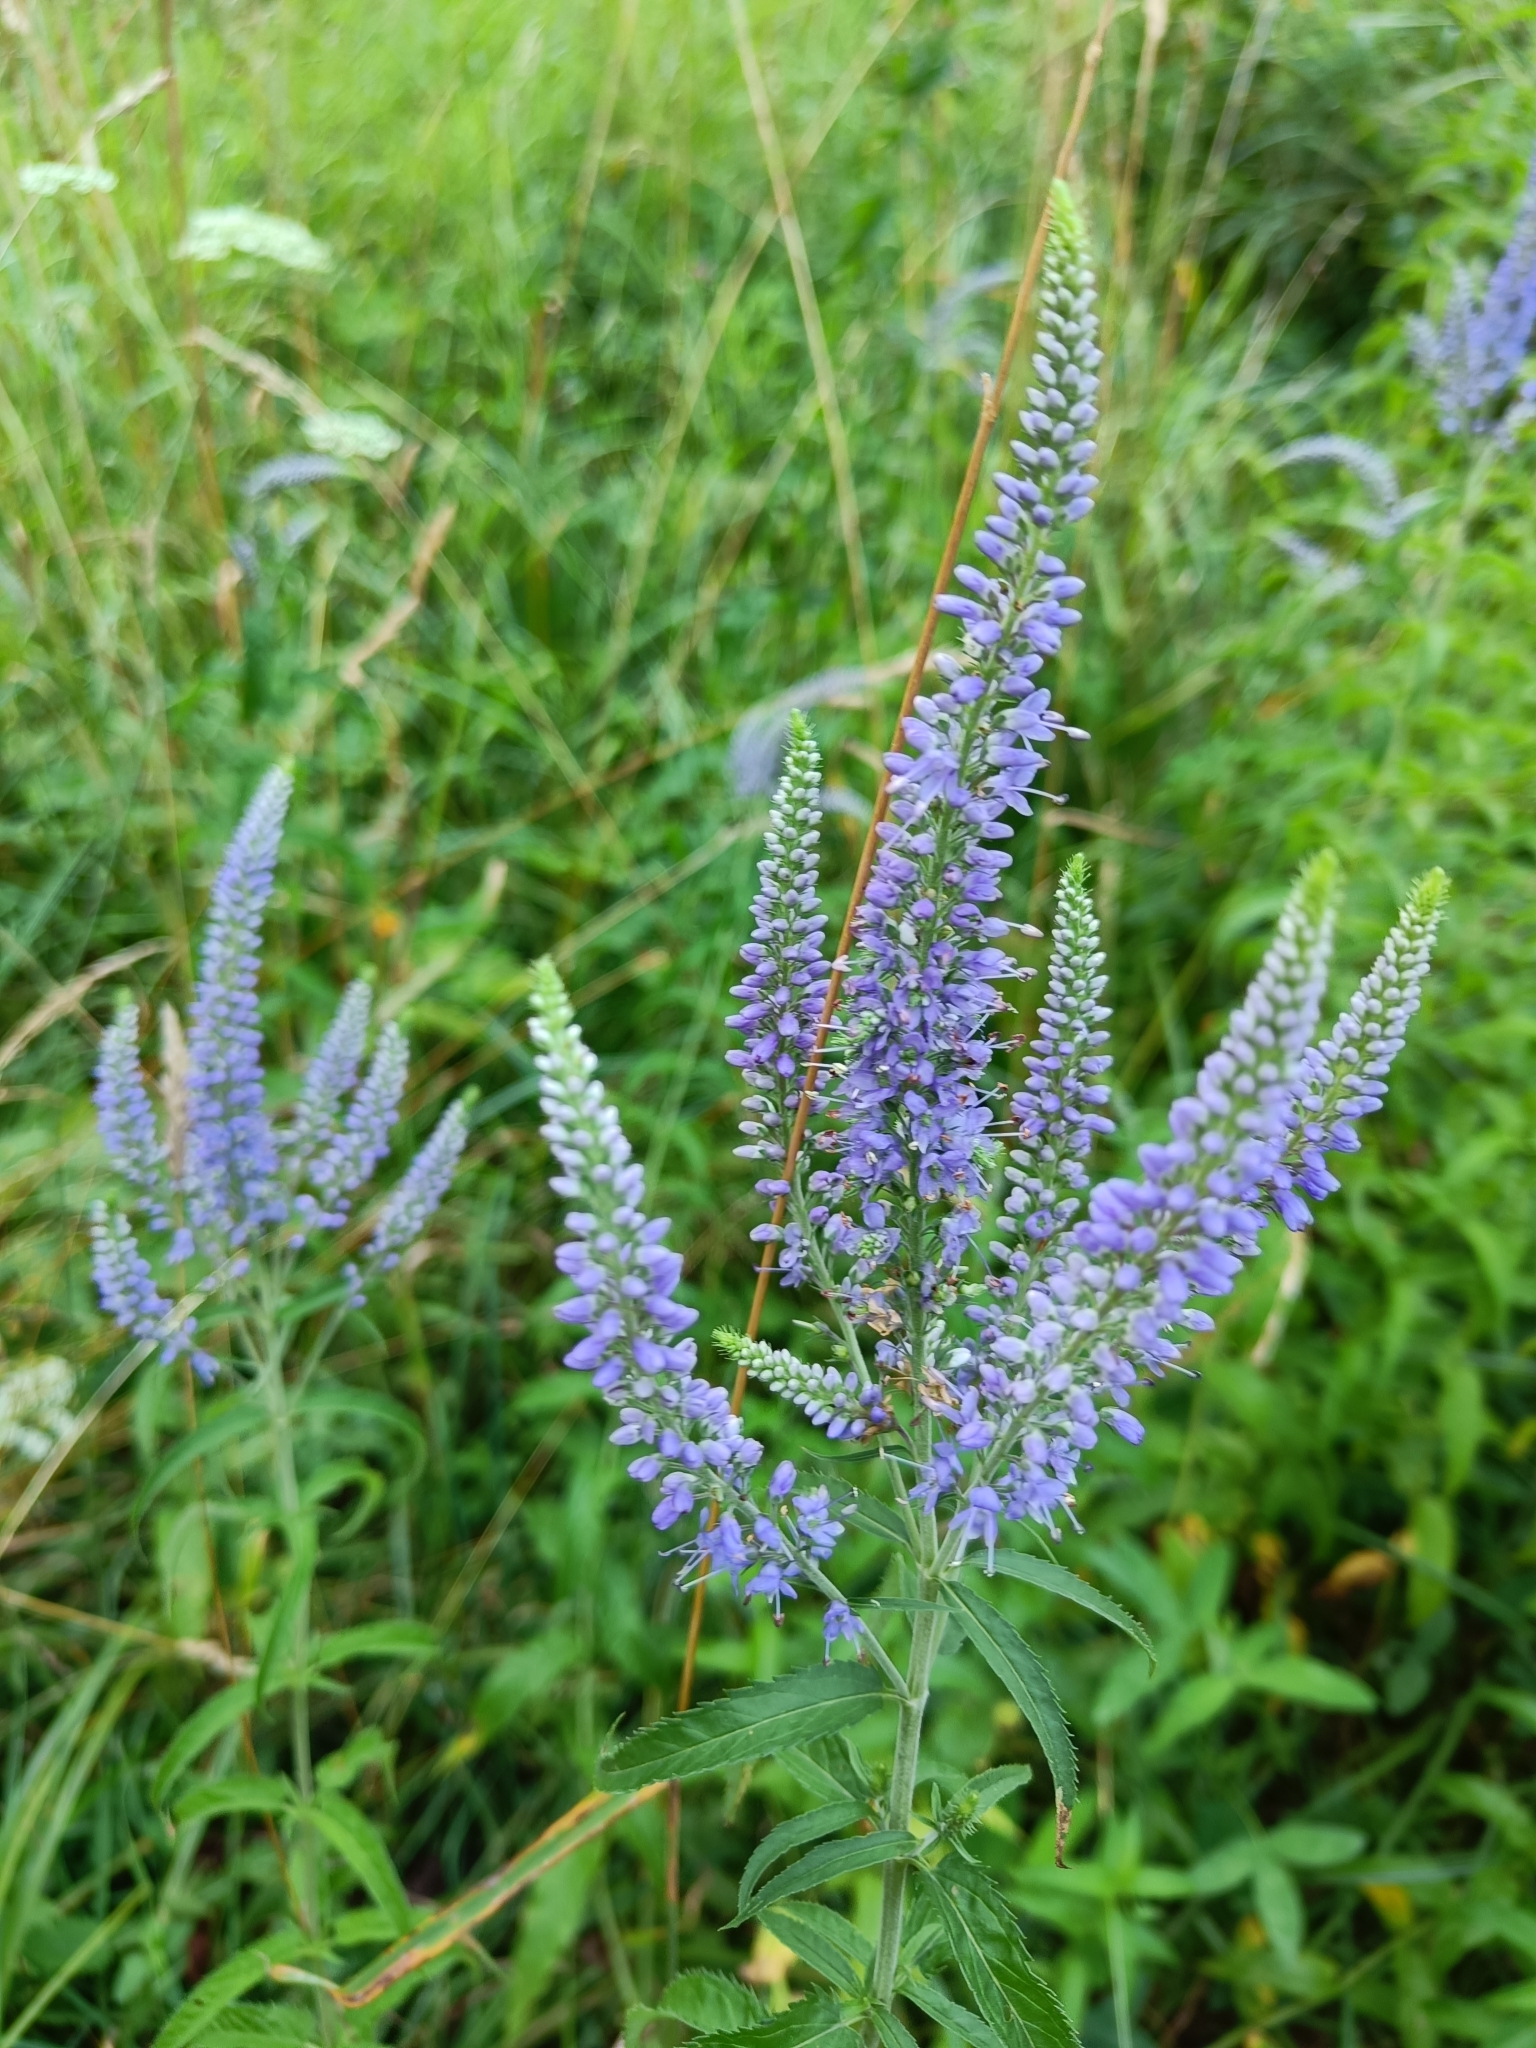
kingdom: Plantae
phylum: Tracheophyta
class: Magnoliopsida
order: Lamiales
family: Plantaginaceae
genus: Veronica
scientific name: Veronica longifolia
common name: Garden speedwell
